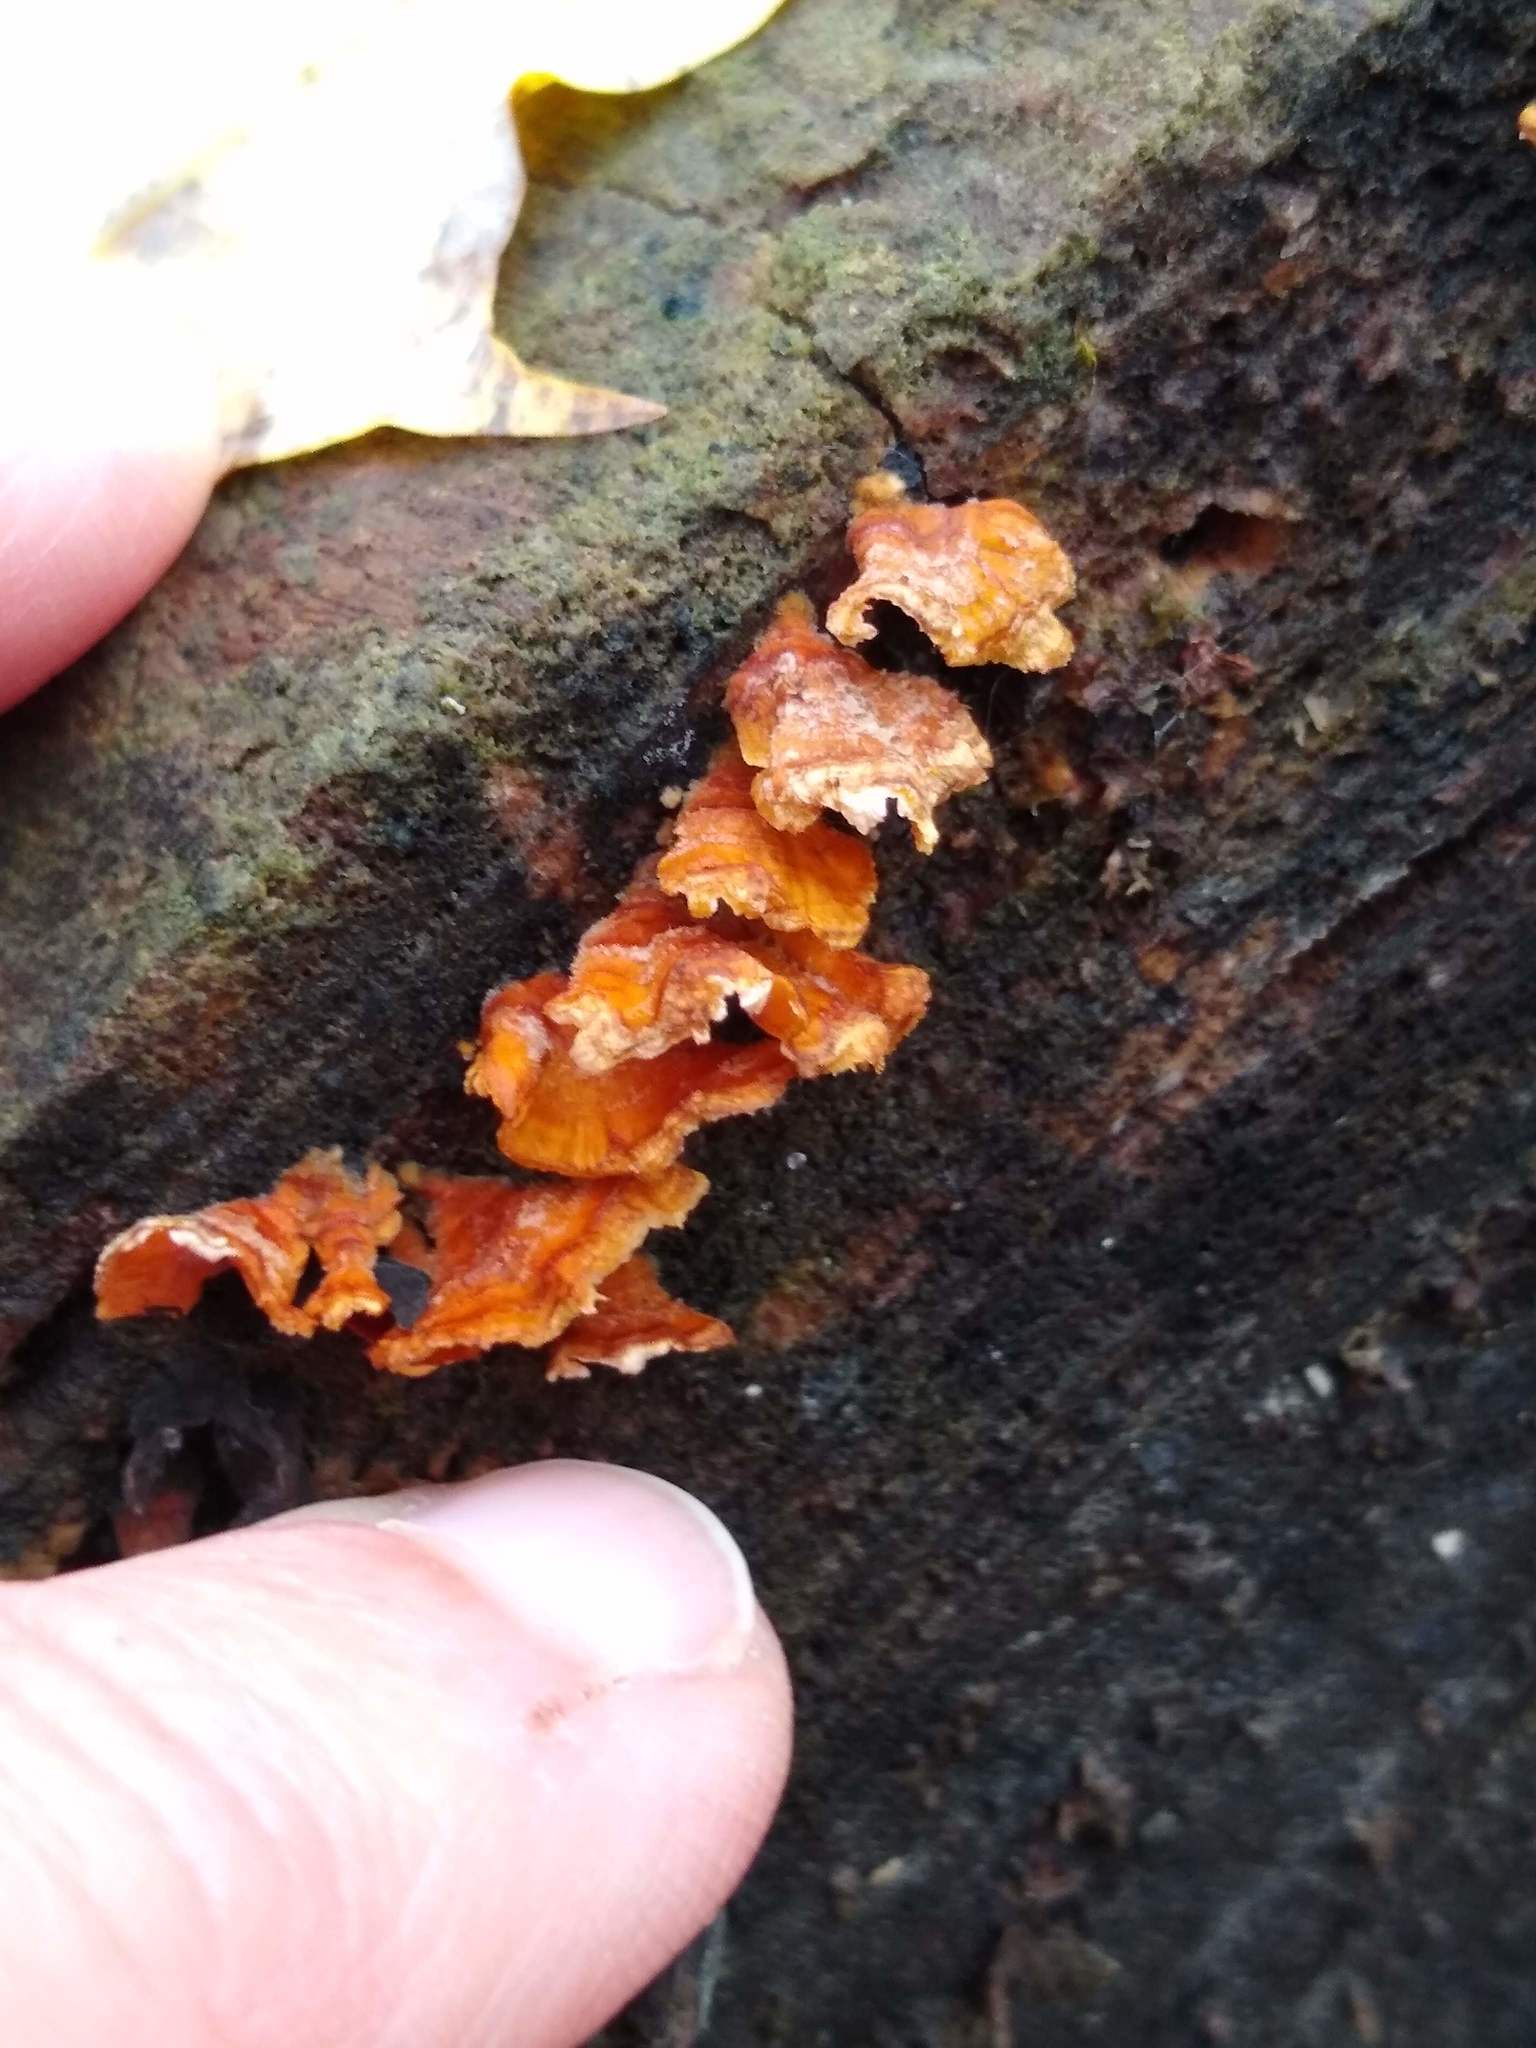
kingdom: Fungi
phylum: Basidiomycota
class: Agaricomycetes
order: Russulales
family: Stereaceae
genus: Stereum
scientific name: Stereum complicatum
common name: Crowded parchment
